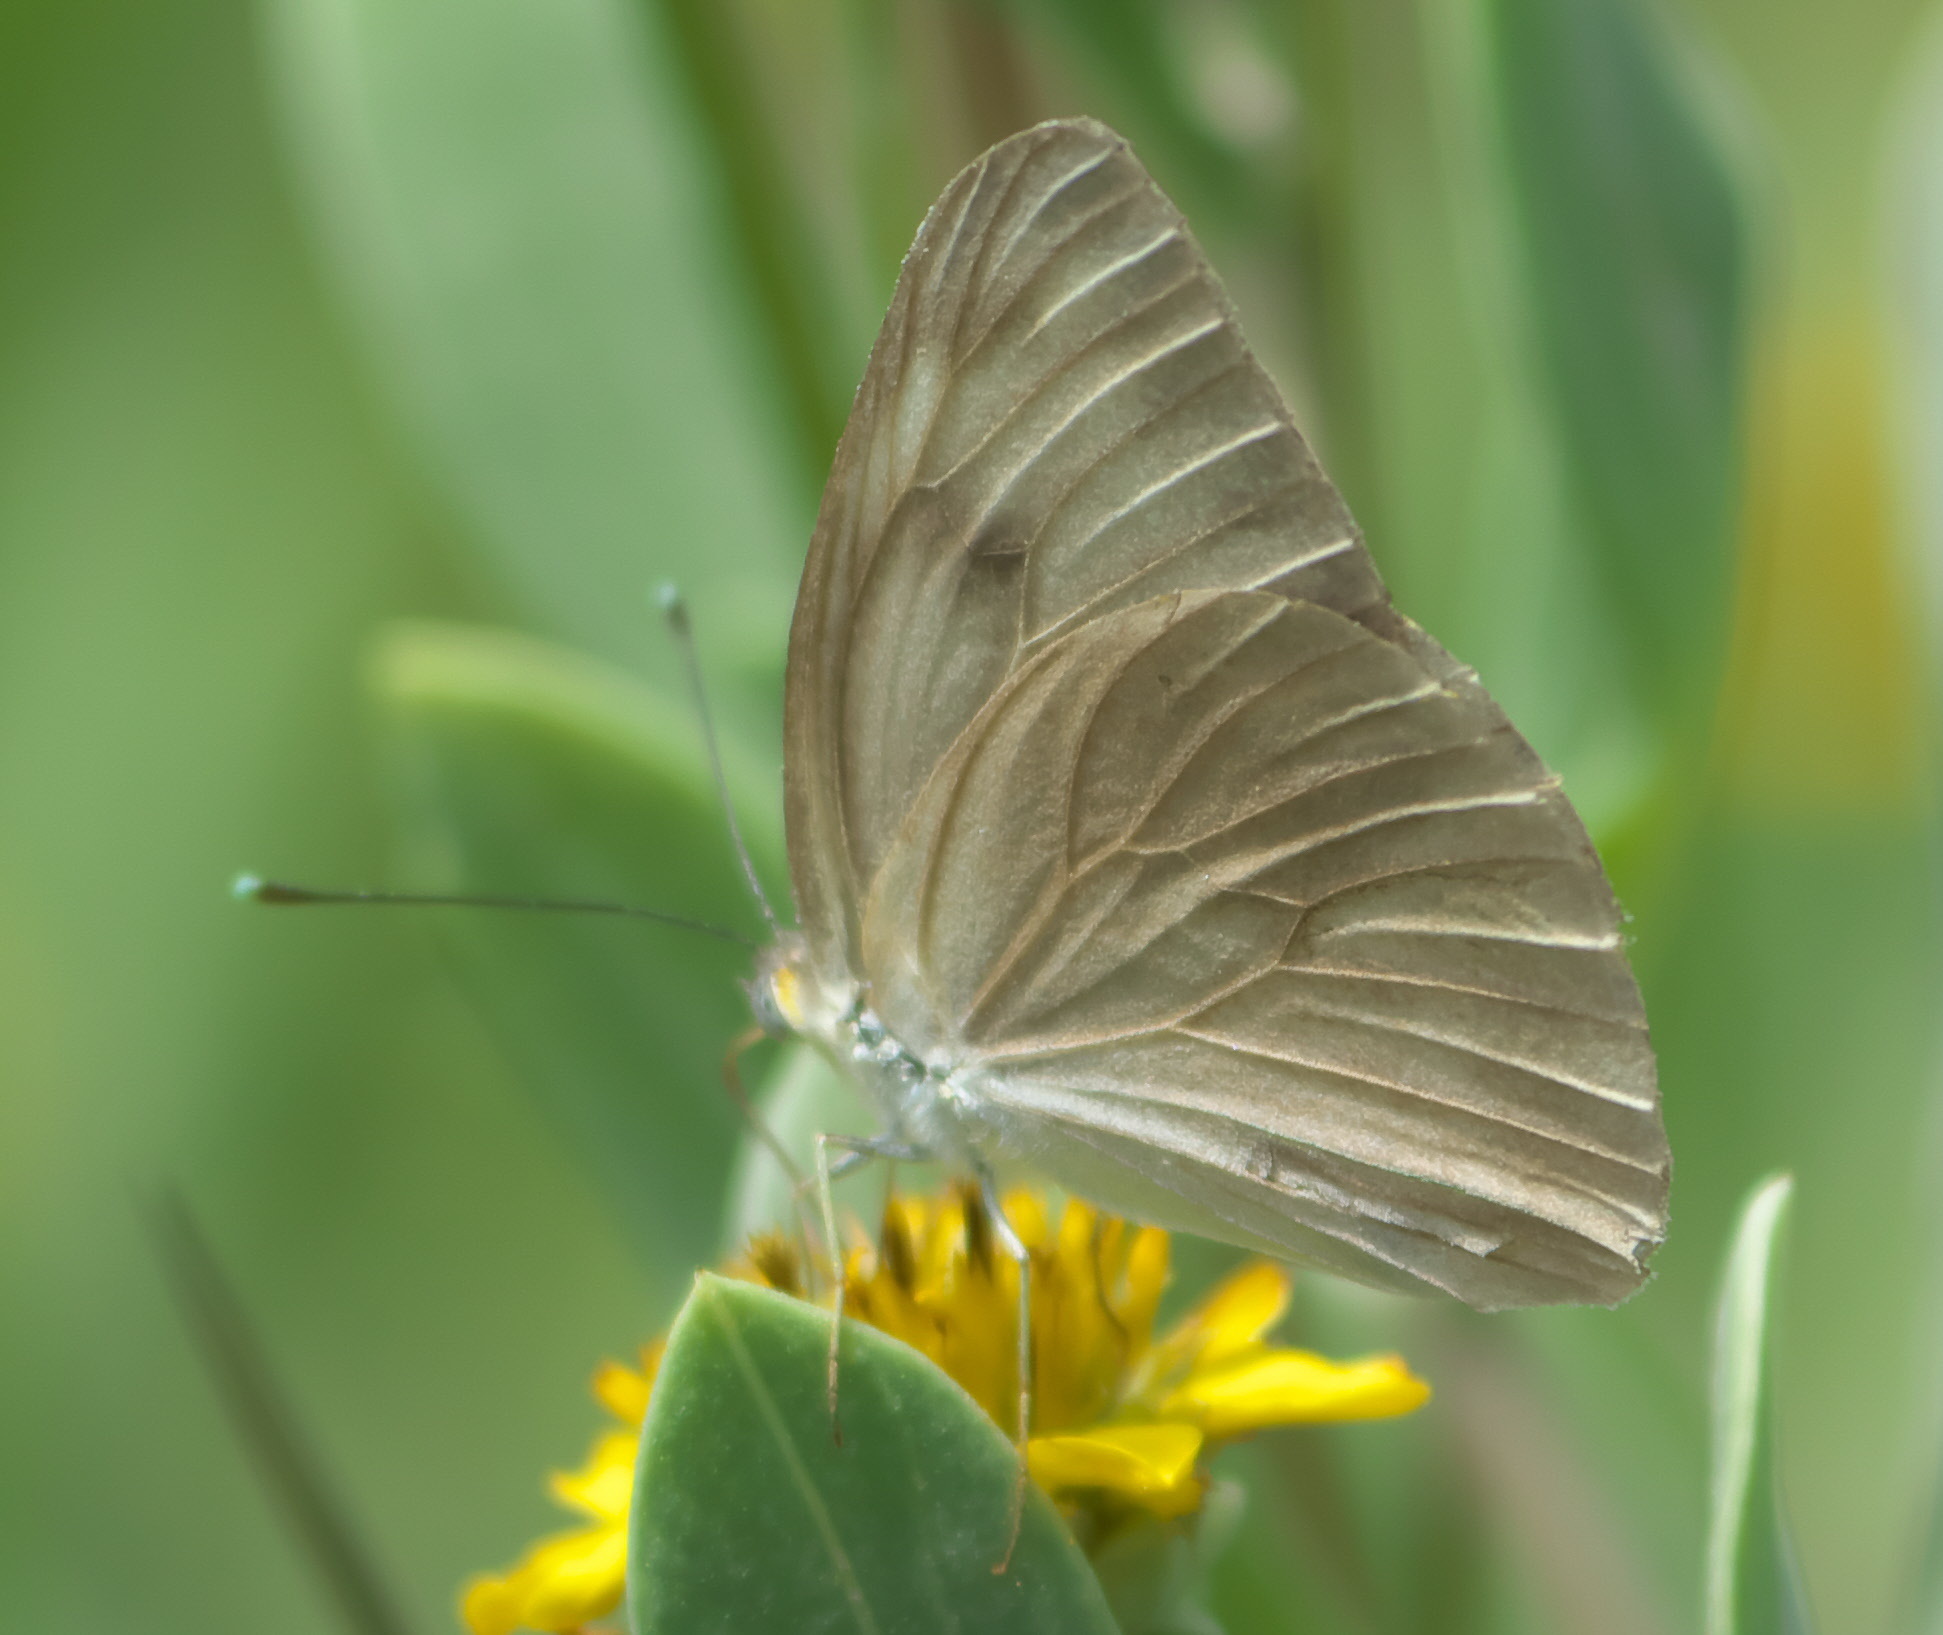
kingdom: Animalia
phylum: Arthropoda
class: Insecta
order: Lepidoptera
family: Pieridae
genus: Ascia
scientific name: Ascia monuste
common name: Great southern white
